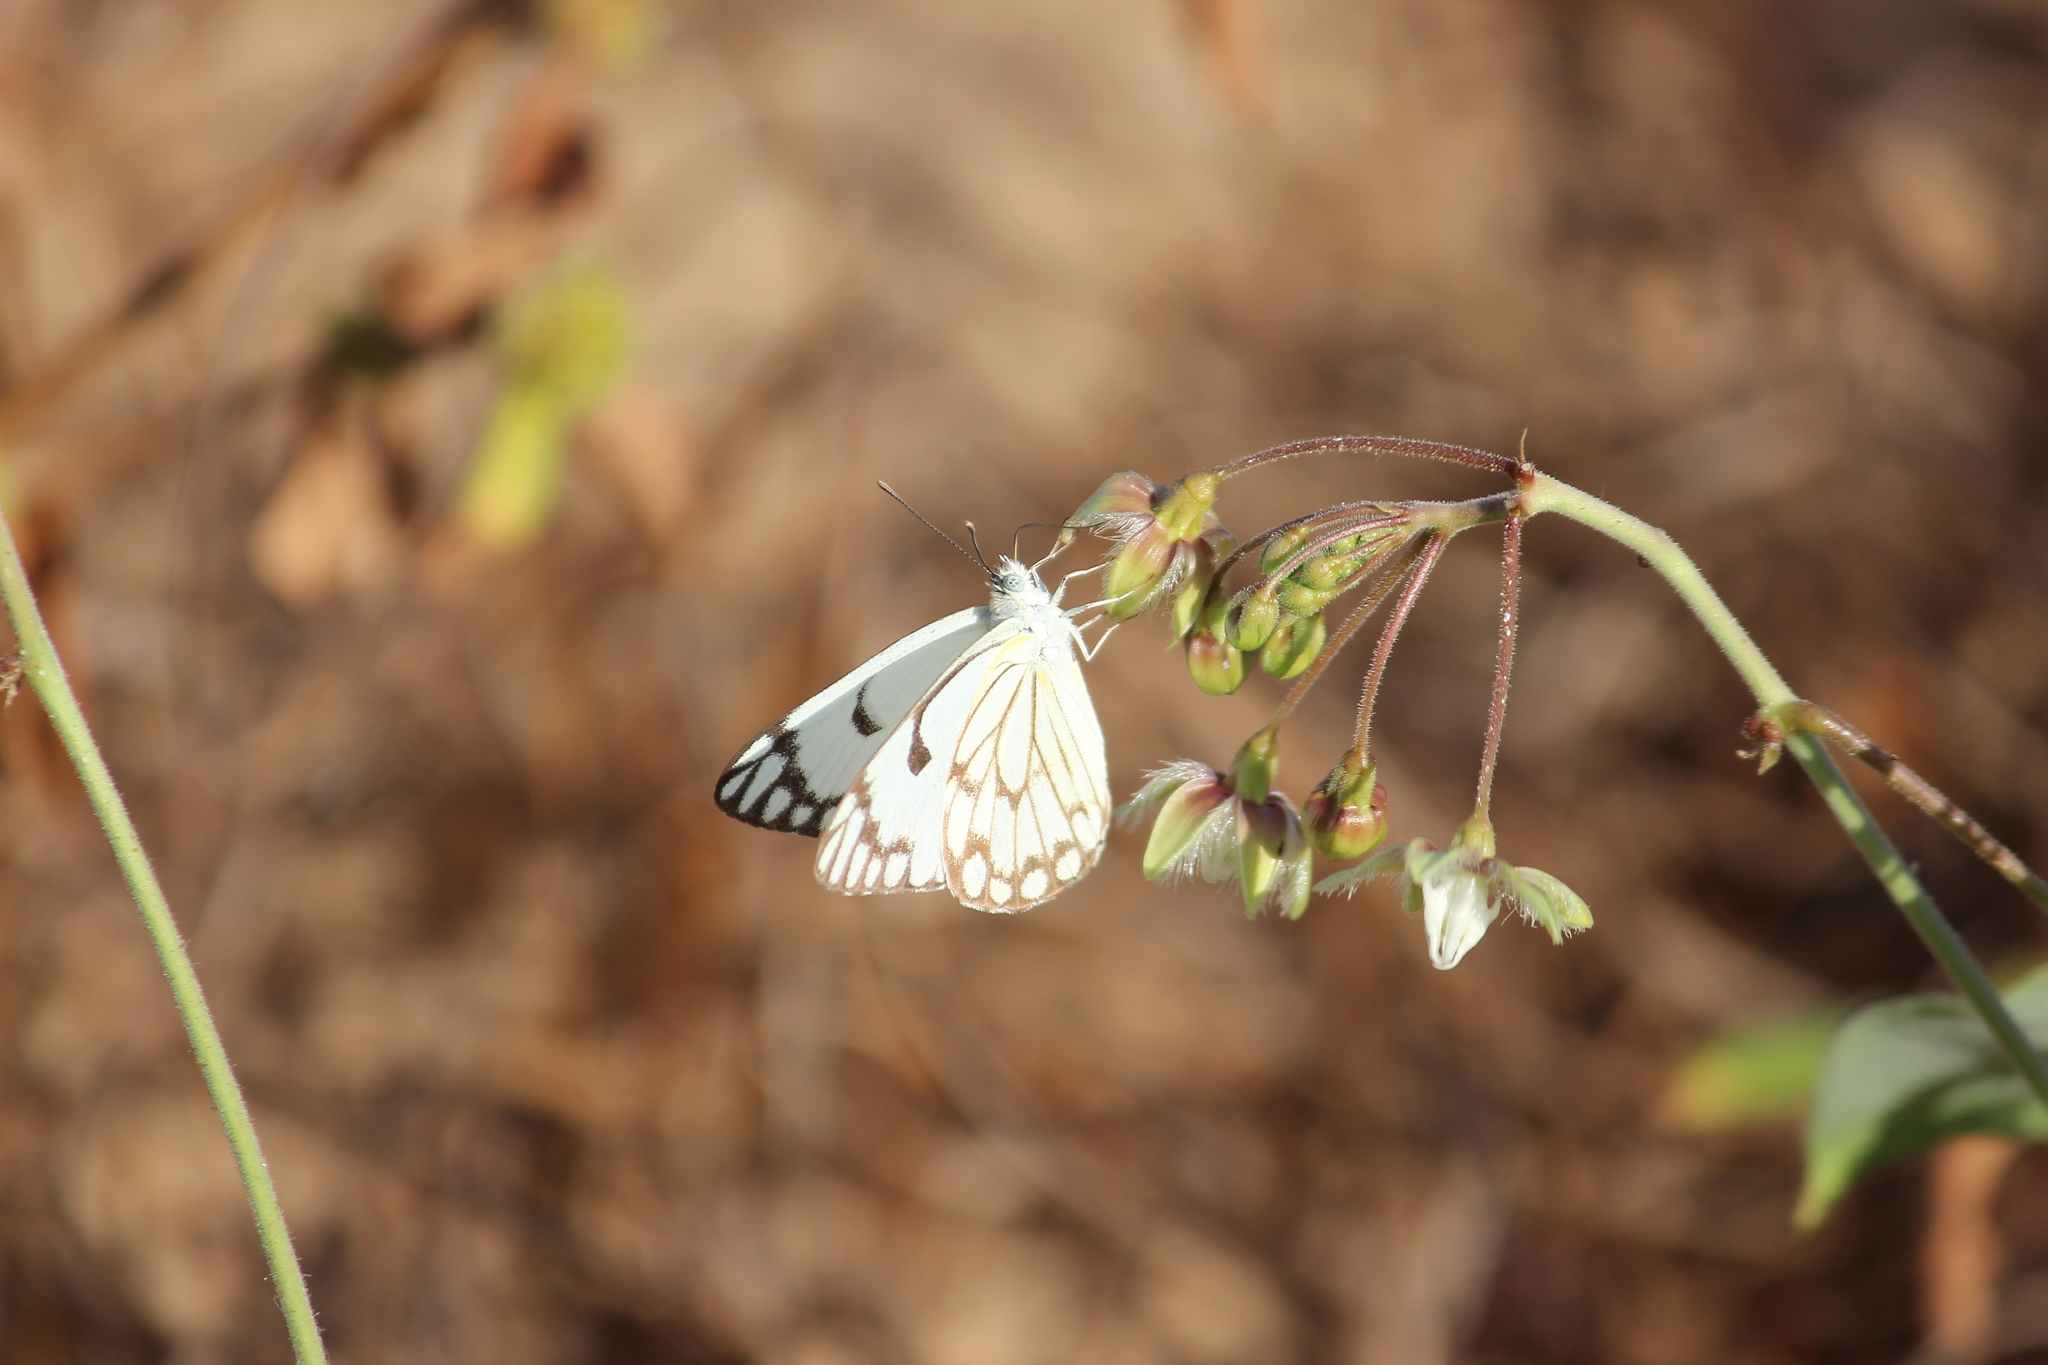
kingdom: Animalia
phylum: Arthropoda
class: Insecta
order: Lepidoptera
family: Pieridae
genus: Belenois
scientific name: Belenois aurota
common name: Brown-veined white
